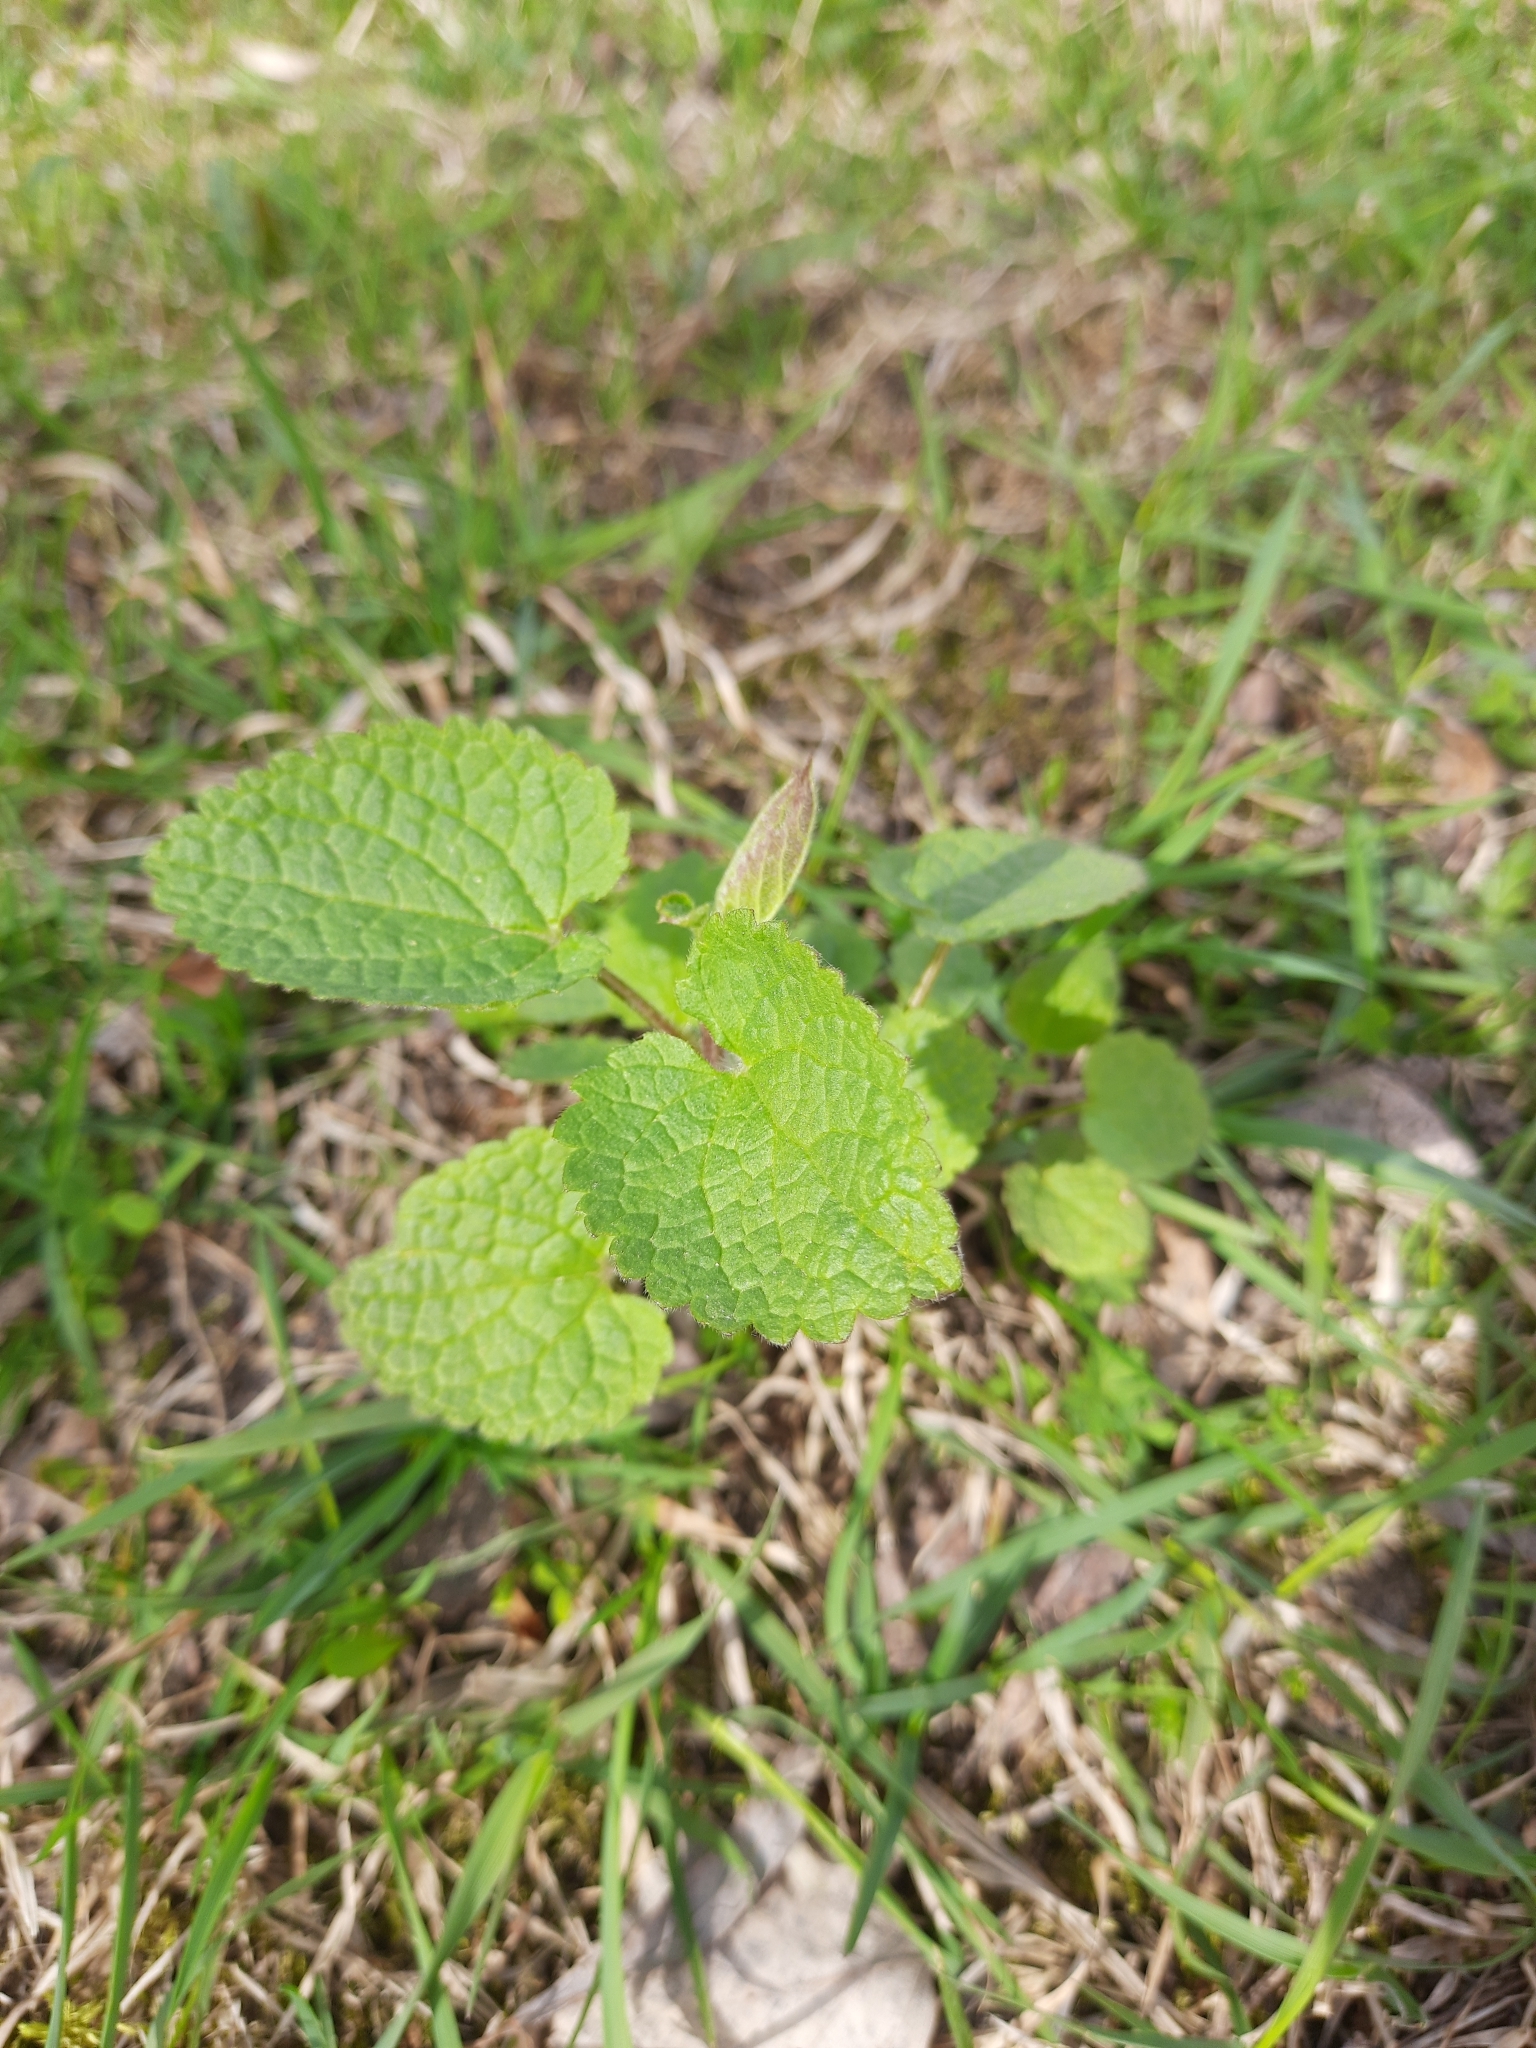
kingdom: Plantae
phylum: Tracheophyta
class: Magnoliopsida
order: Lamiales
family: Lamiaceae
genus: Lamium
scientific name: Lamium album
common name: White dead-nettle
